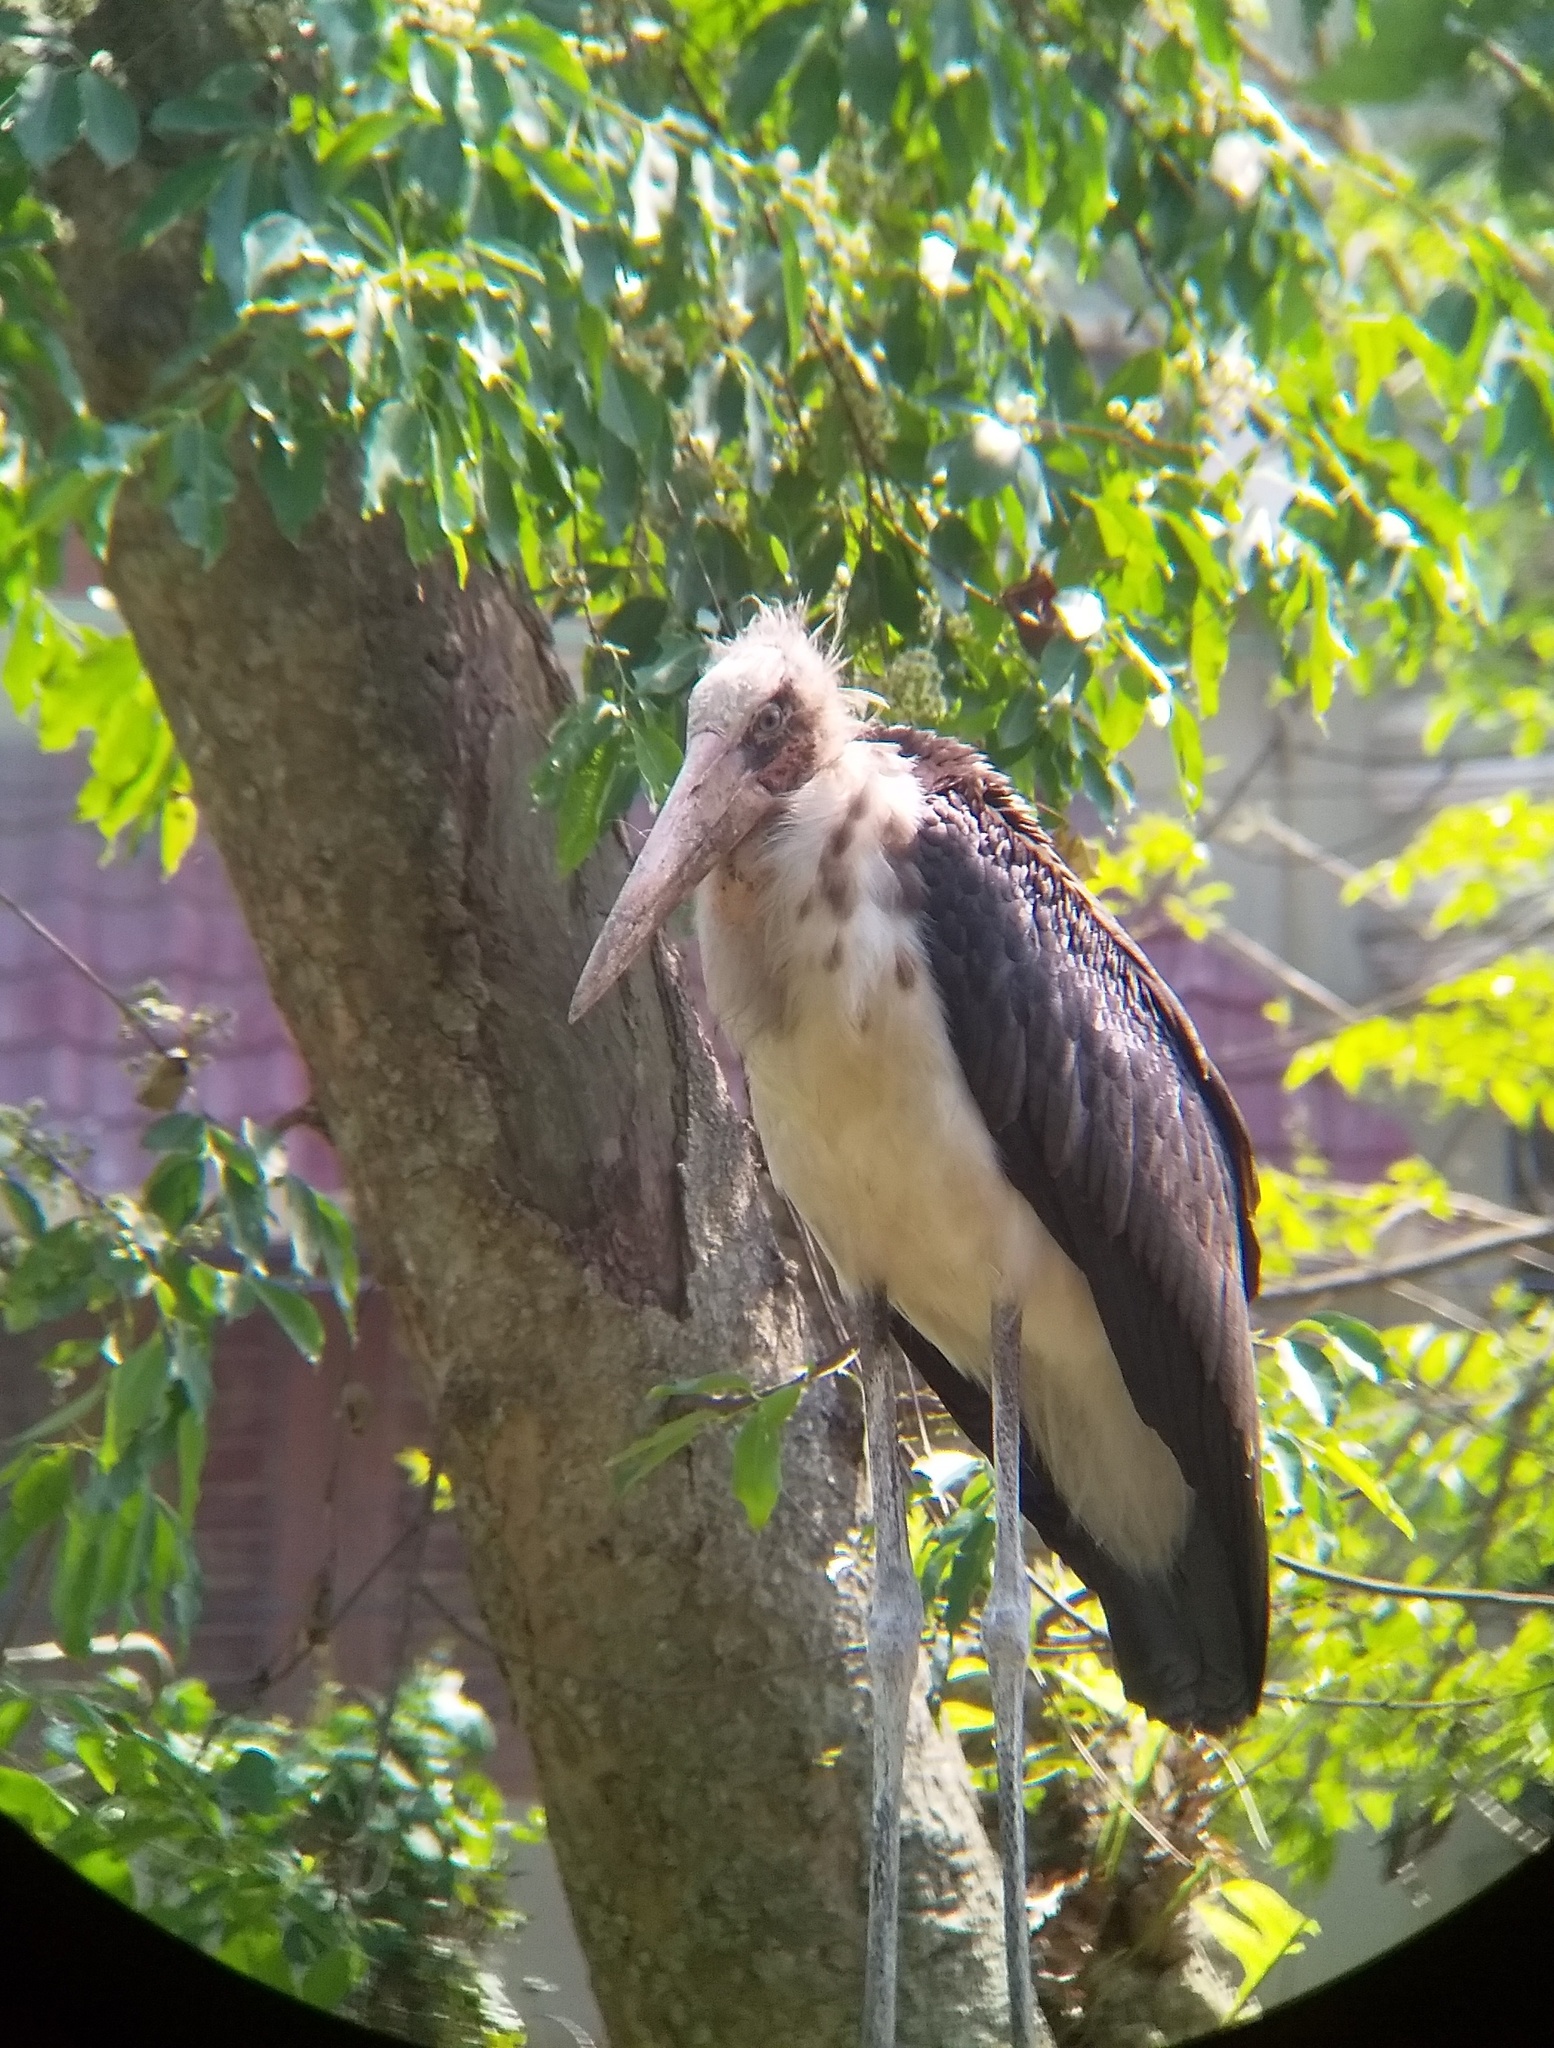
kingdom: Animalia
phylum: Chordata
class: Aves
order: Ciconiiformes
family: Ciconiidae
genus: Leptoptilos
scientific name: Leptoptilos javanicus
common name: Lesser adjutant
